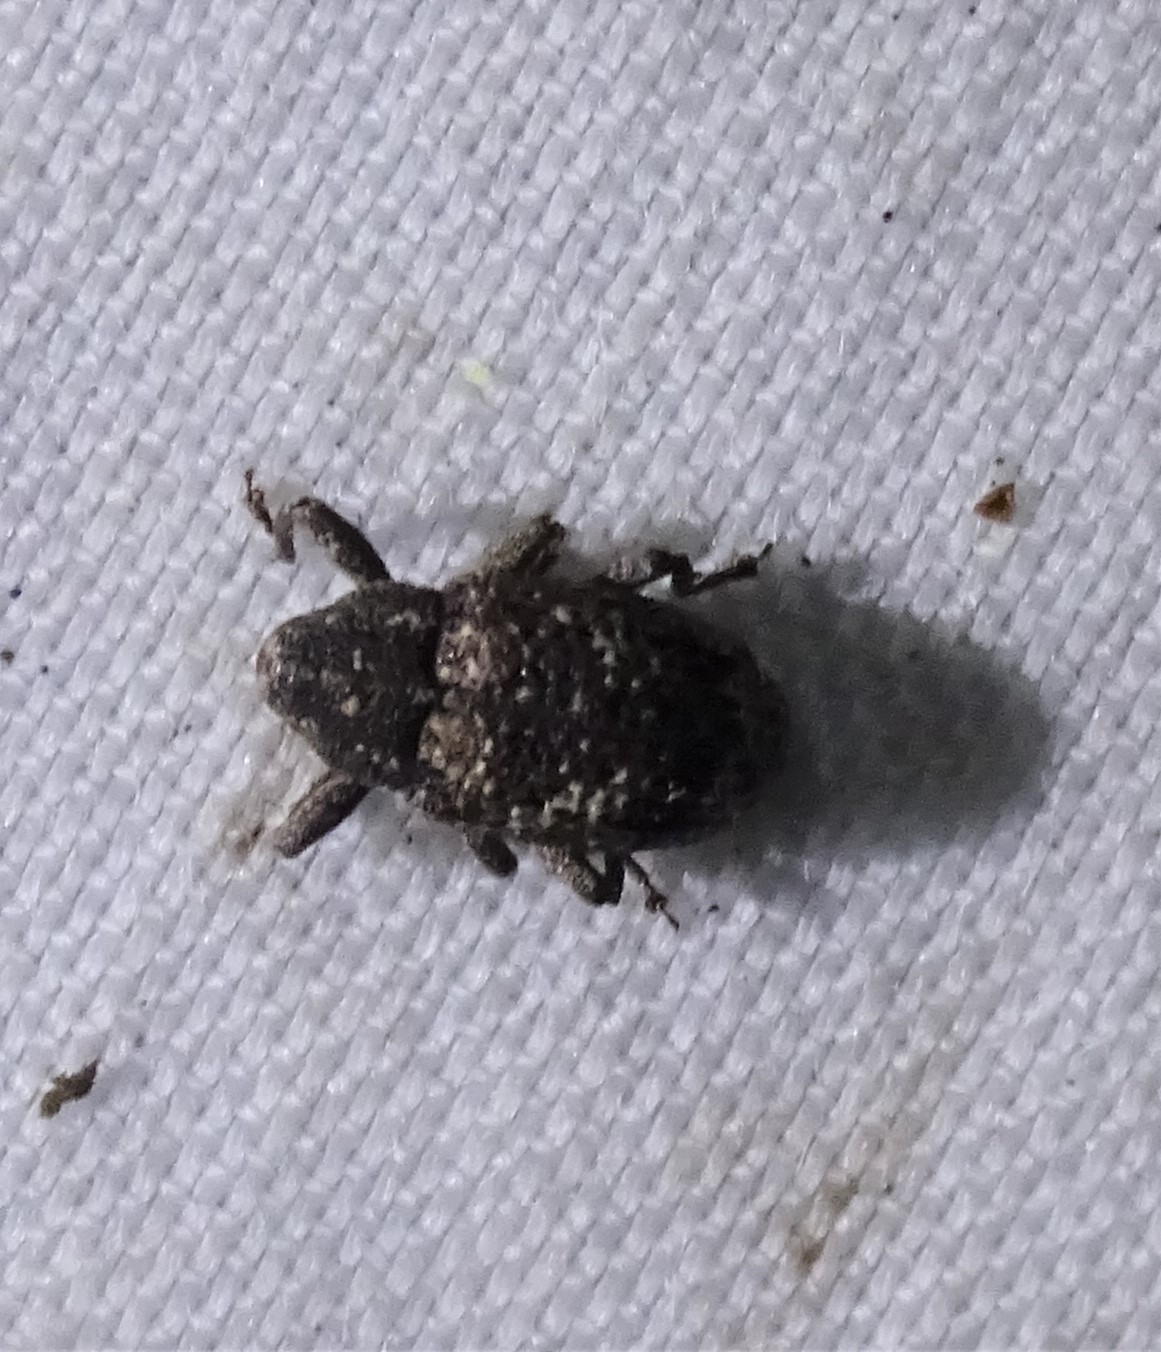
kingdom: Animalia
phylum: Arthropoda
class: Insecta
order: Coleoptera
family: Curculionidae
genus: Cophes
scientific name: Cophes oblongus
